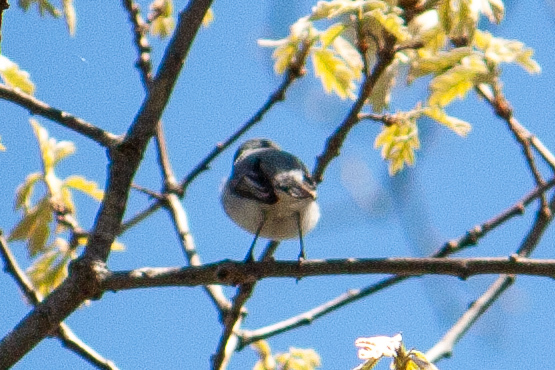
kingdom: Animalia
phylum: Chordata
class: Aves
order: Passeriformes
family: Polioptilidae
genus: Polioptila
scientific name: Polioptila caerulea
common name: Blue-gray gnatcatcher
